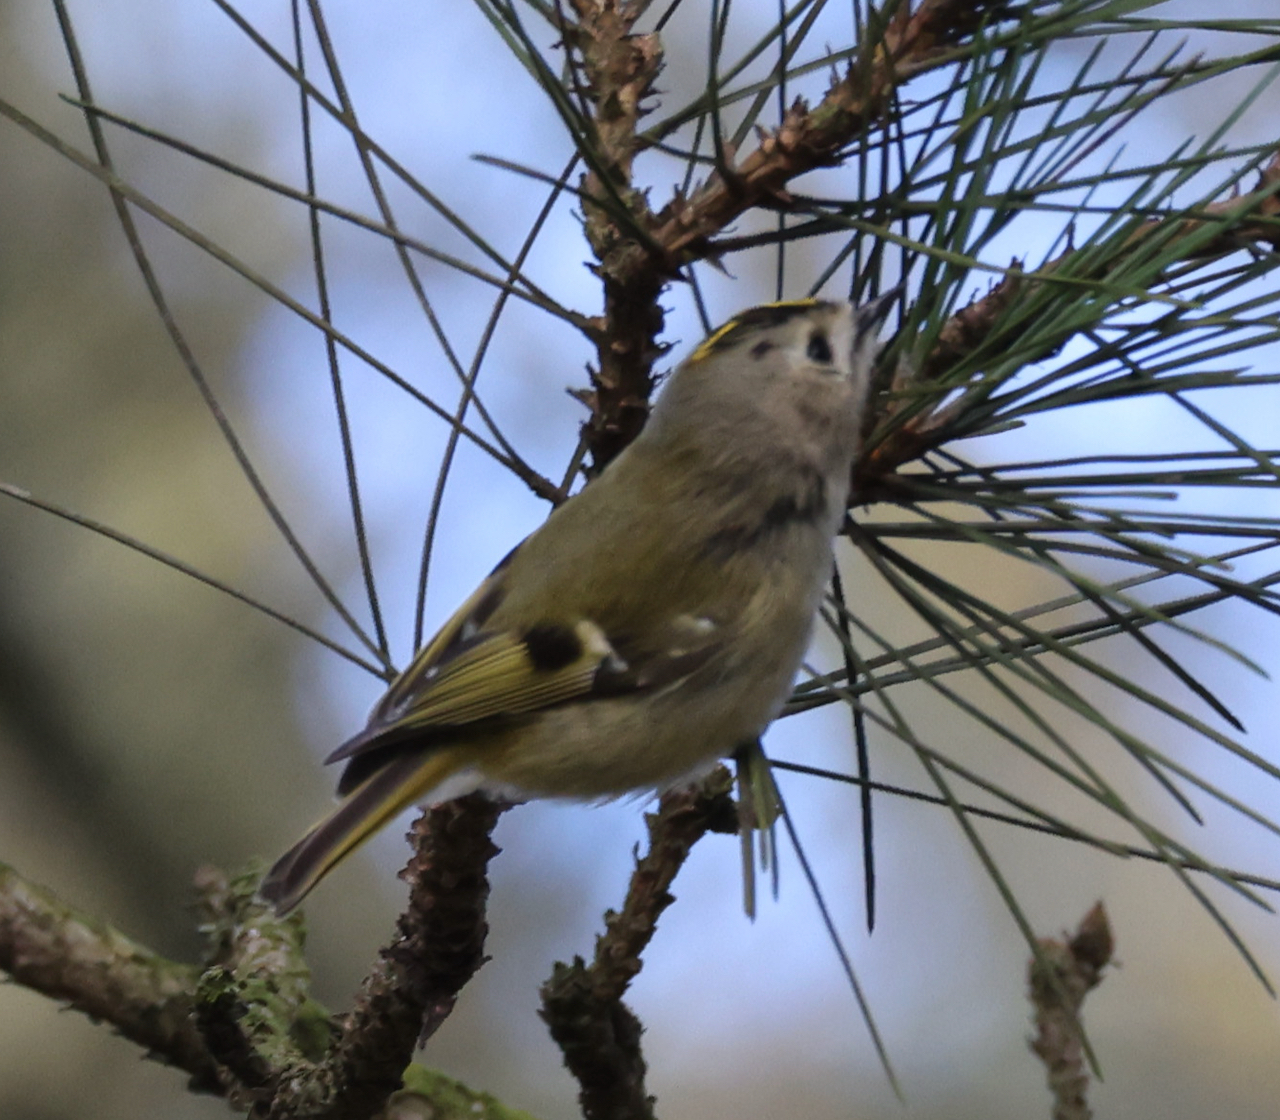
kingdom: Animalia
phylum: Chordata
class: Aves
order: Passeriformes
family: Regulidae
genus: Regulus
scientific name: Regulus regulus
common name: Goldcrest
